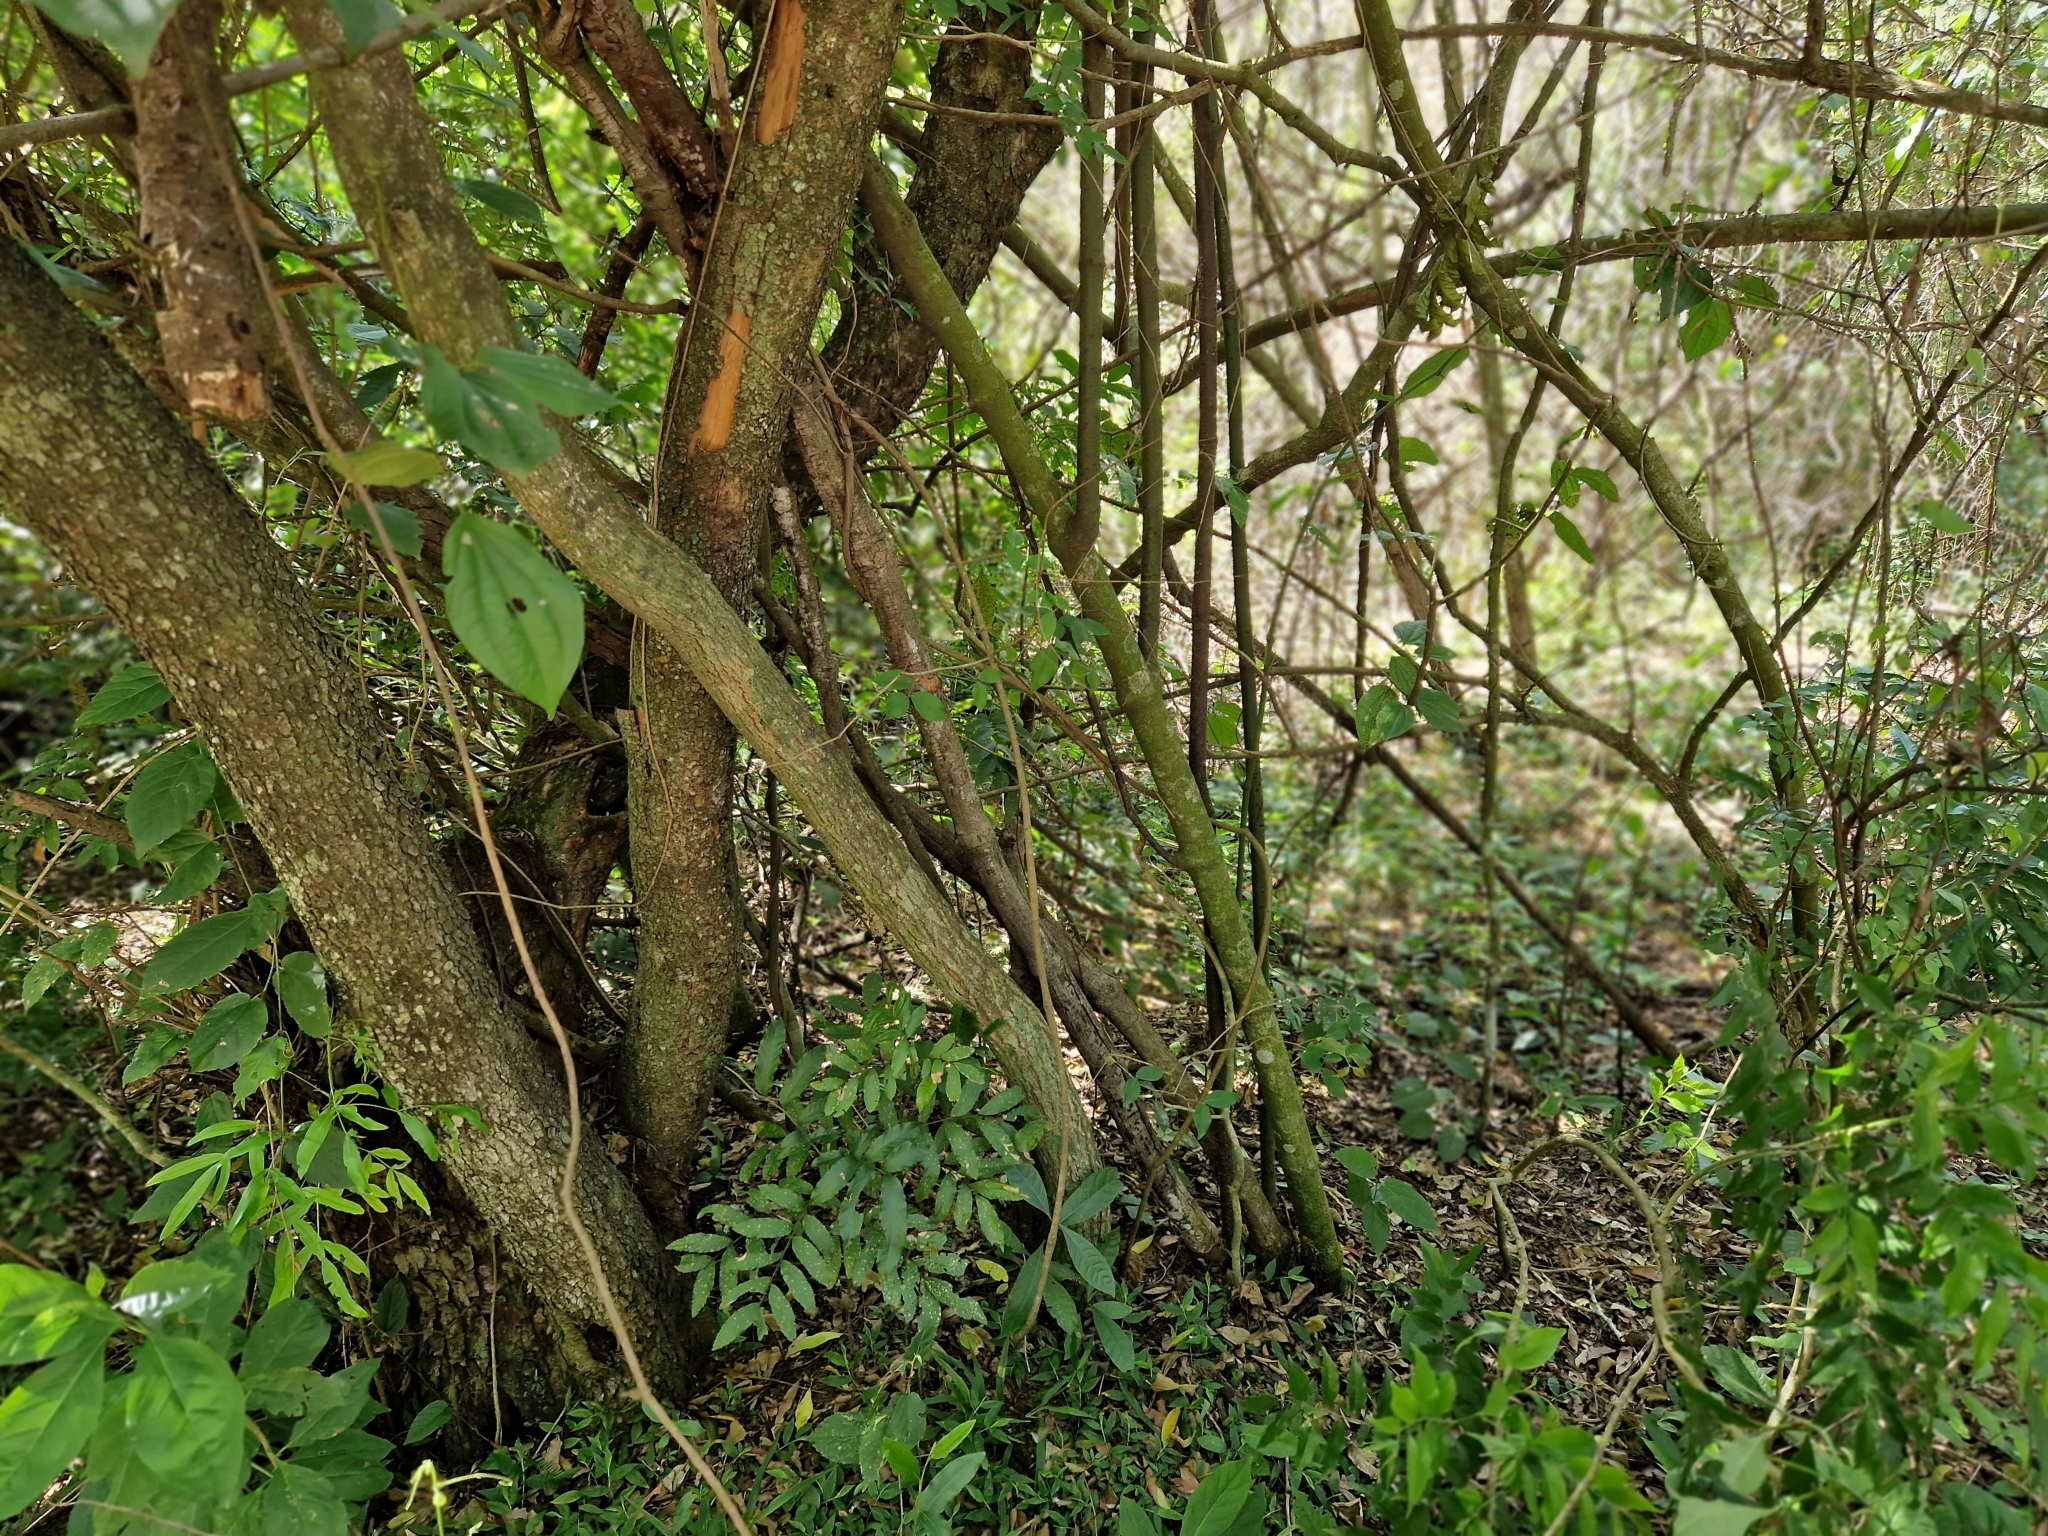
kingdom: Plantae
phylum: Tracheophyta
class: Magnoliopsida
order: Piperales
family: Piperaceae
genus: Piper
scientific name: Piper amalago
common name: Pepper-elder
